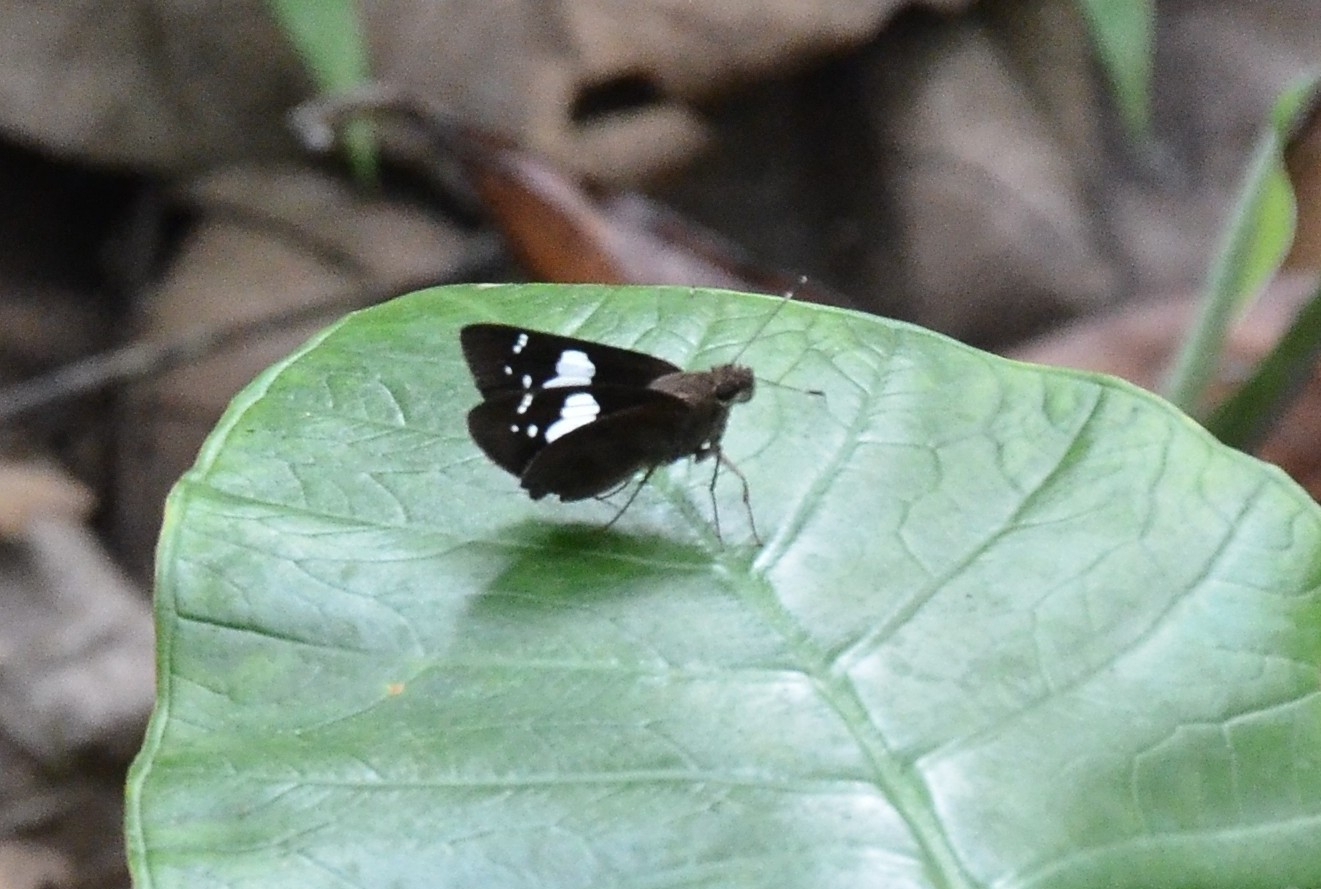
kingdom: Animalia
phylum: Arthropoda
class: Insecta
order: Lepidoptera
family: Hesperiidae
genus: Notocrypta
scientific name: Notocrypta curvifascia
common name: Restricted demon
